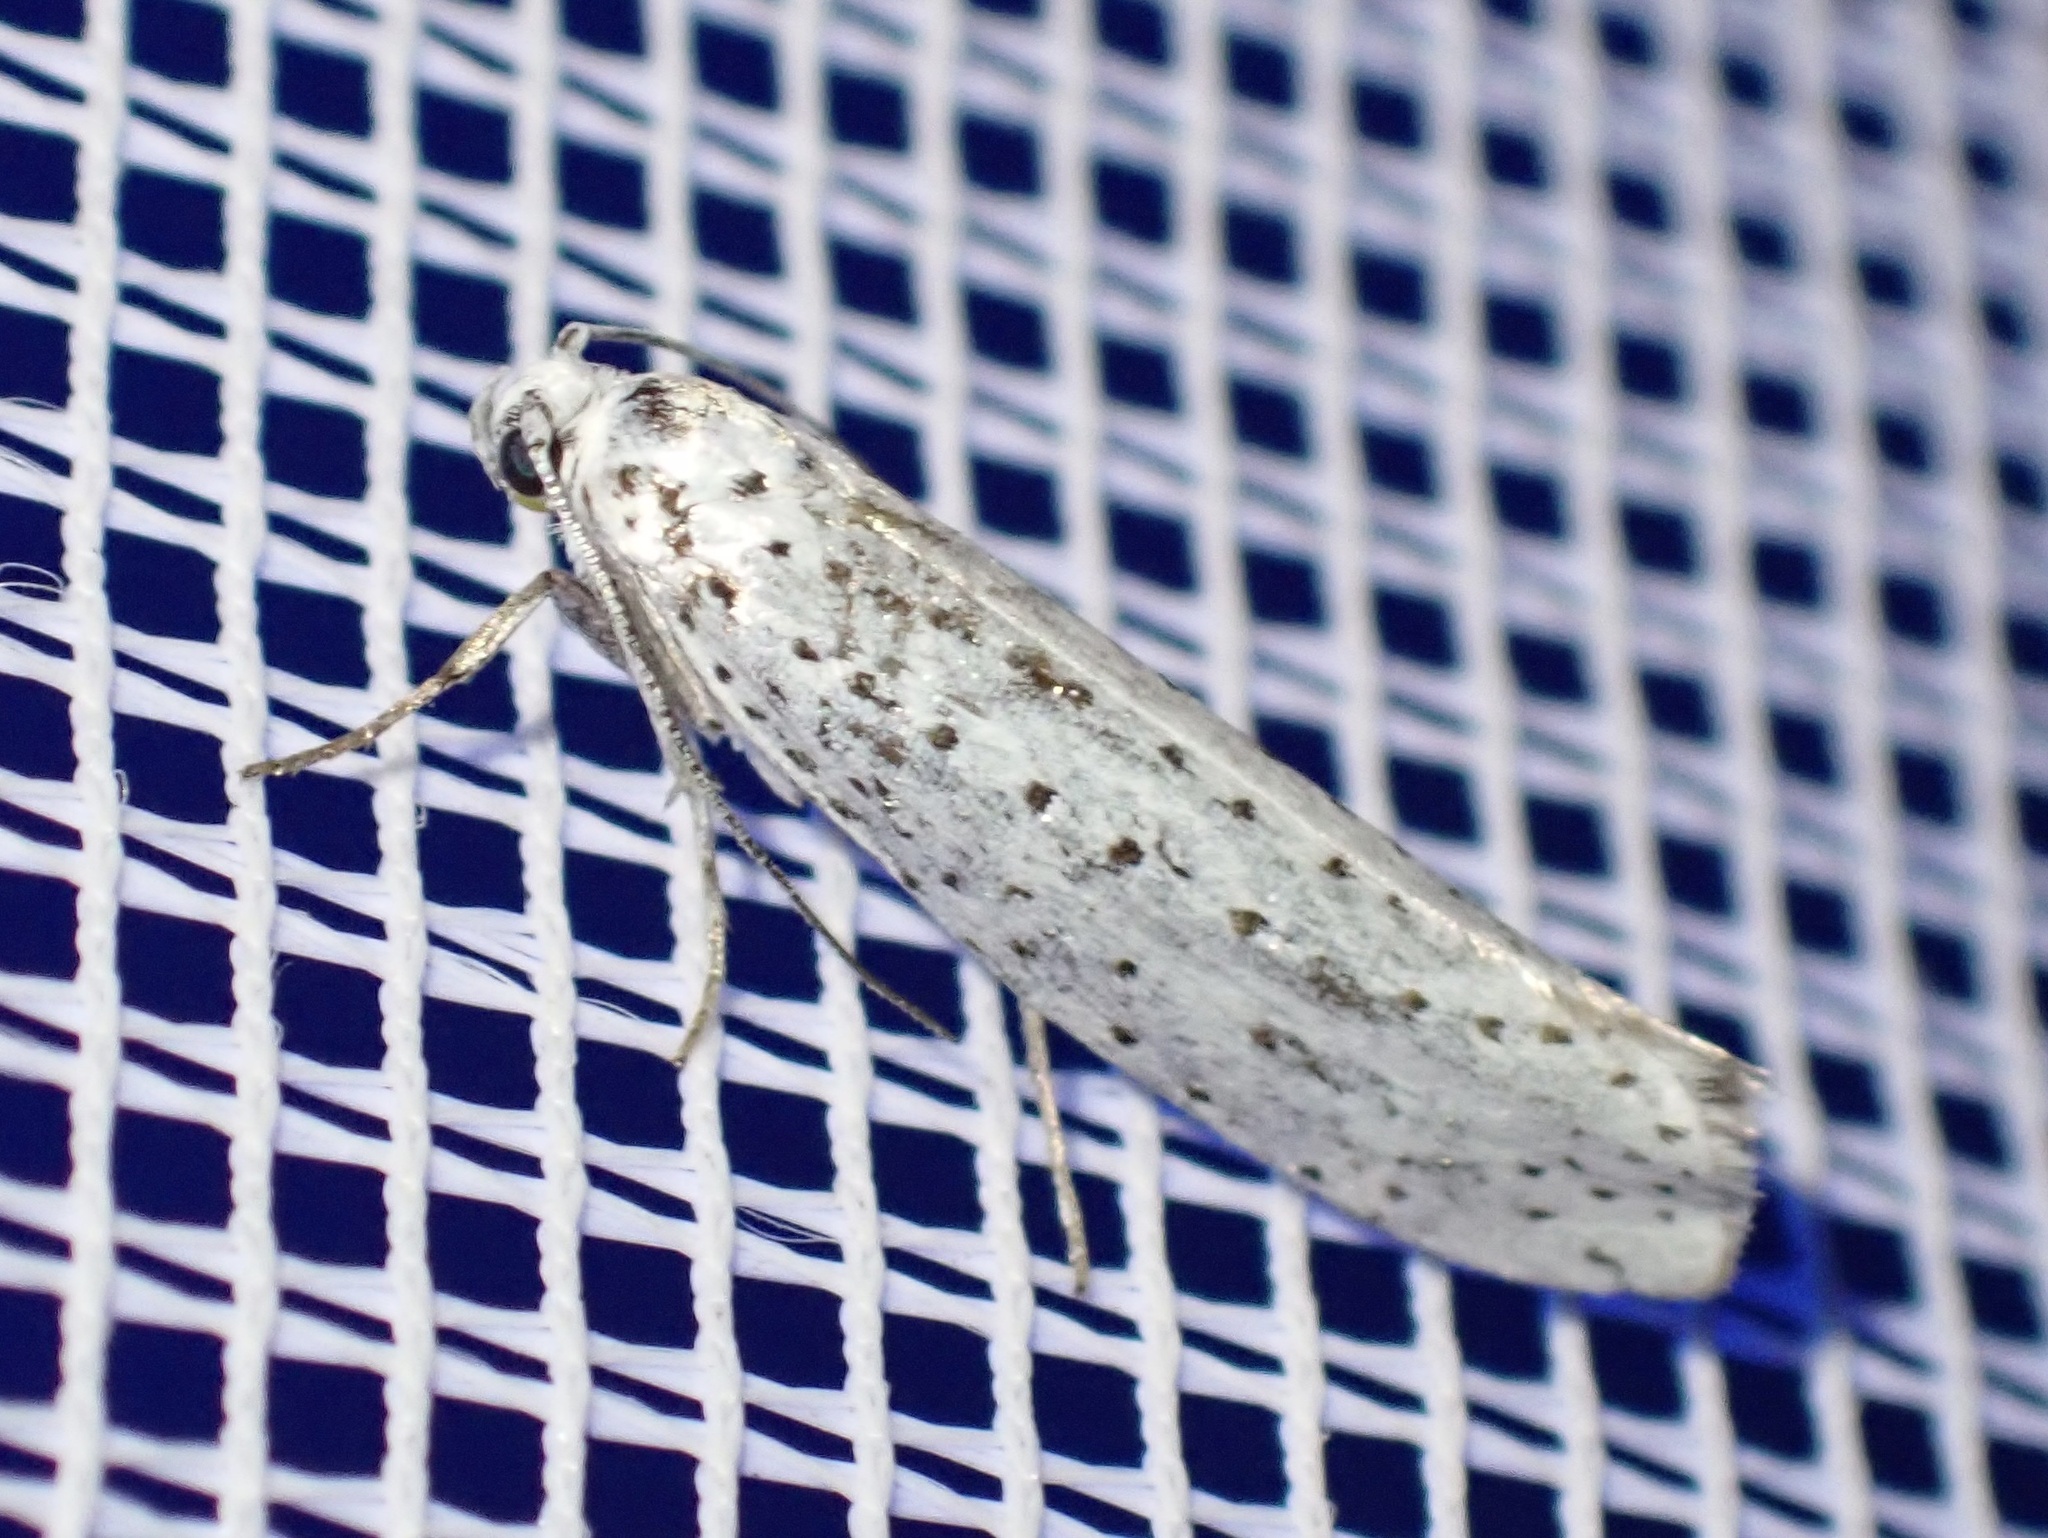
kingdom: Animalia
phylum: Arthropoda
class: Insecta
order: Lepidoptera
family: Yponomeutidae
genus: Yponomeuta
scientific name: Yponomeuta evonymella
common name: Bird-cherry ermine
